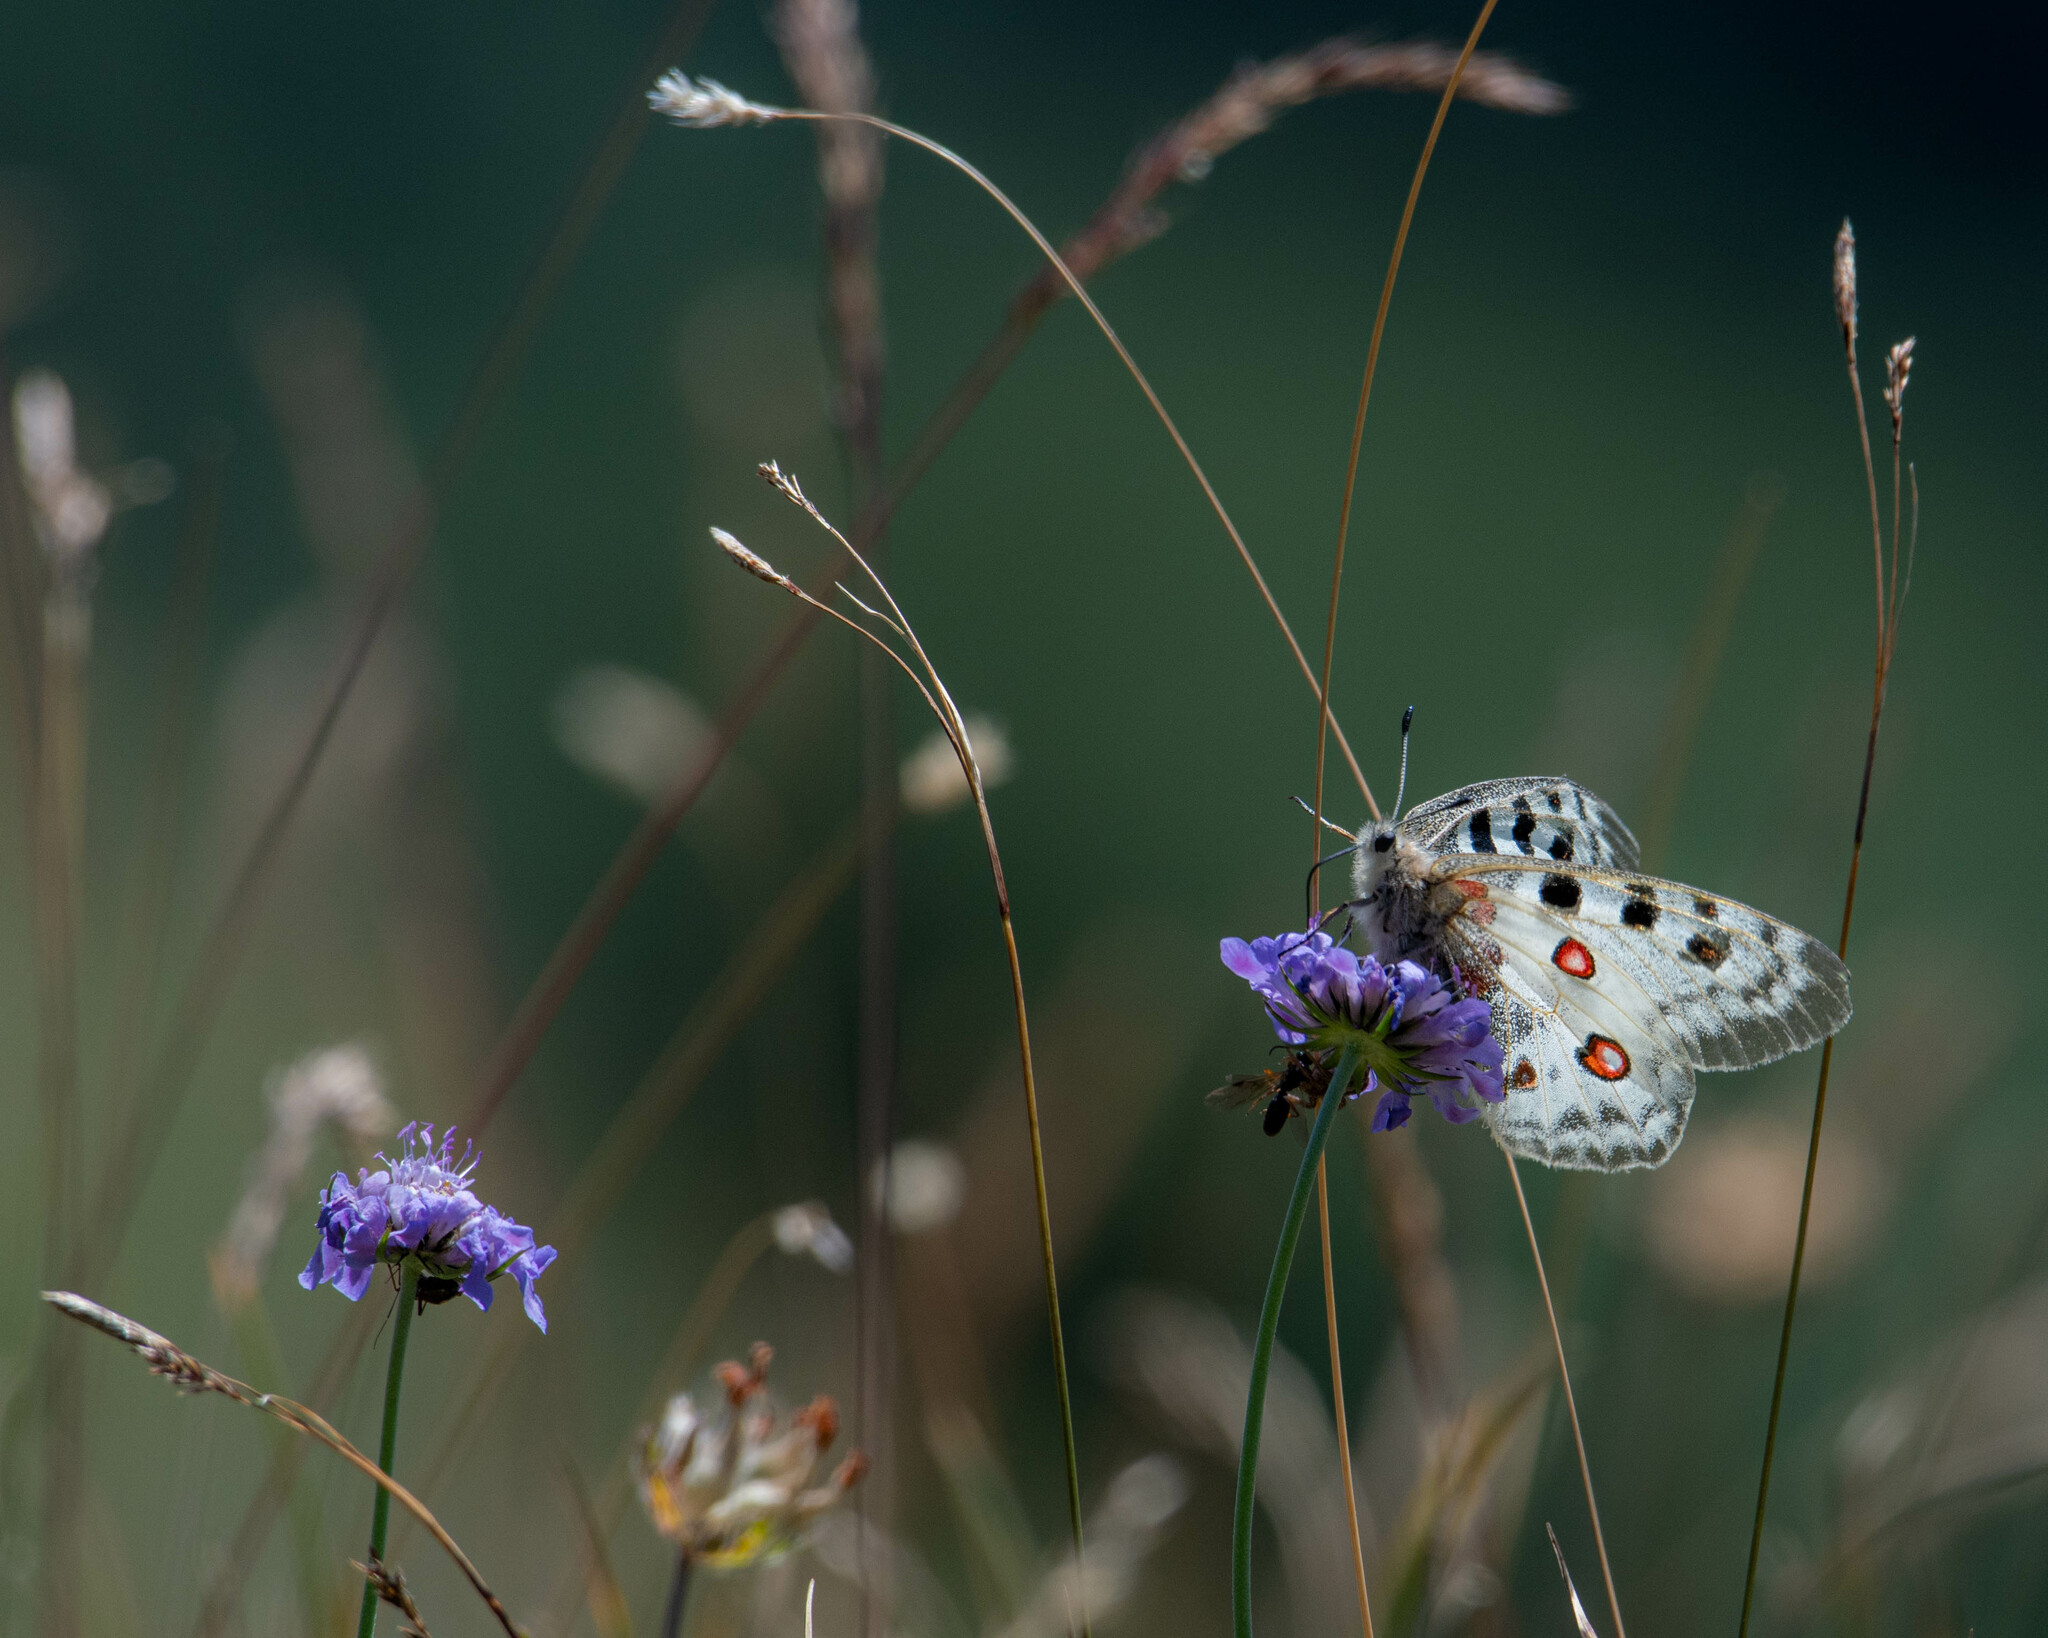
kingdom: Animalia
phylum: Arthropoda
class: Insecta
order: Lepidoptera
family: Papilionidae
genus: Parnassius
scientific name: Parnassius apollo
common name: Apollo
